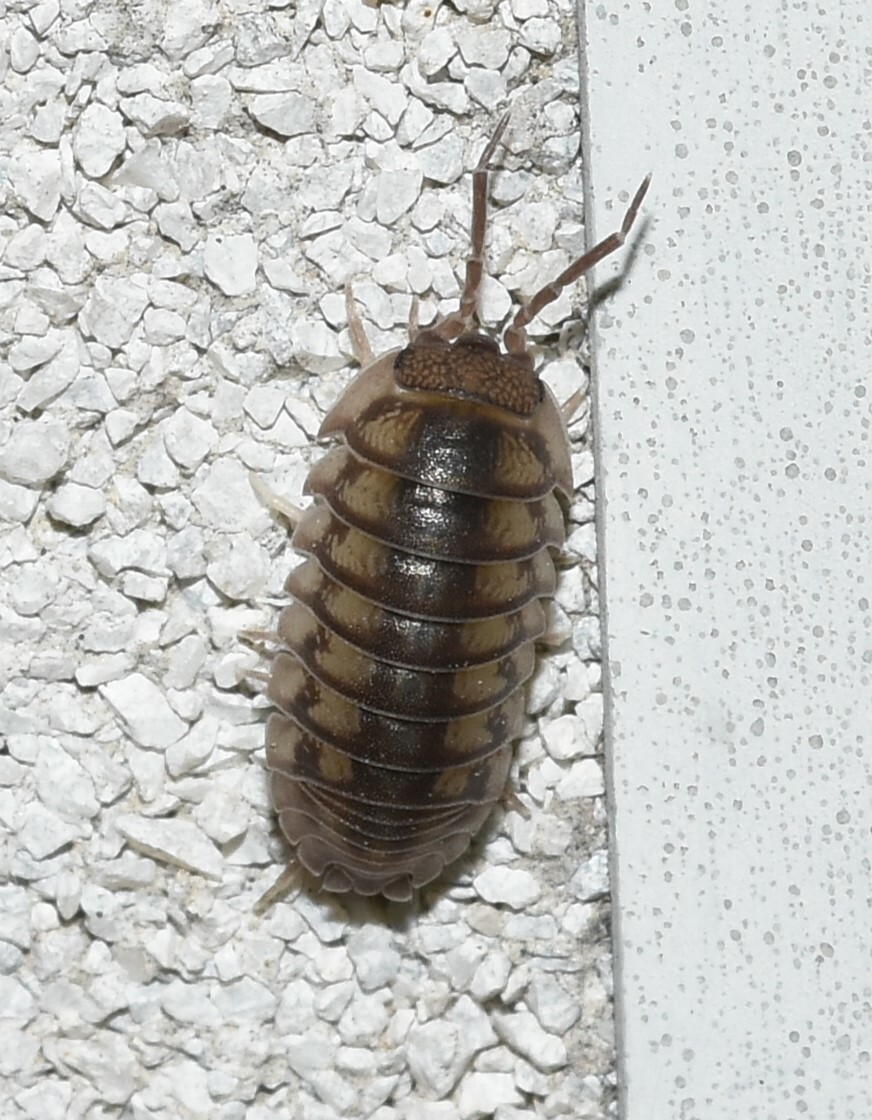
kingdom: Animalia
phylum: Arthropoda
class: Malacostraca
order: Isopoda
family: Armadillidiidae
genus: Armadillidium
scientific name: Armadillidium nasatum
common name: Isopod
